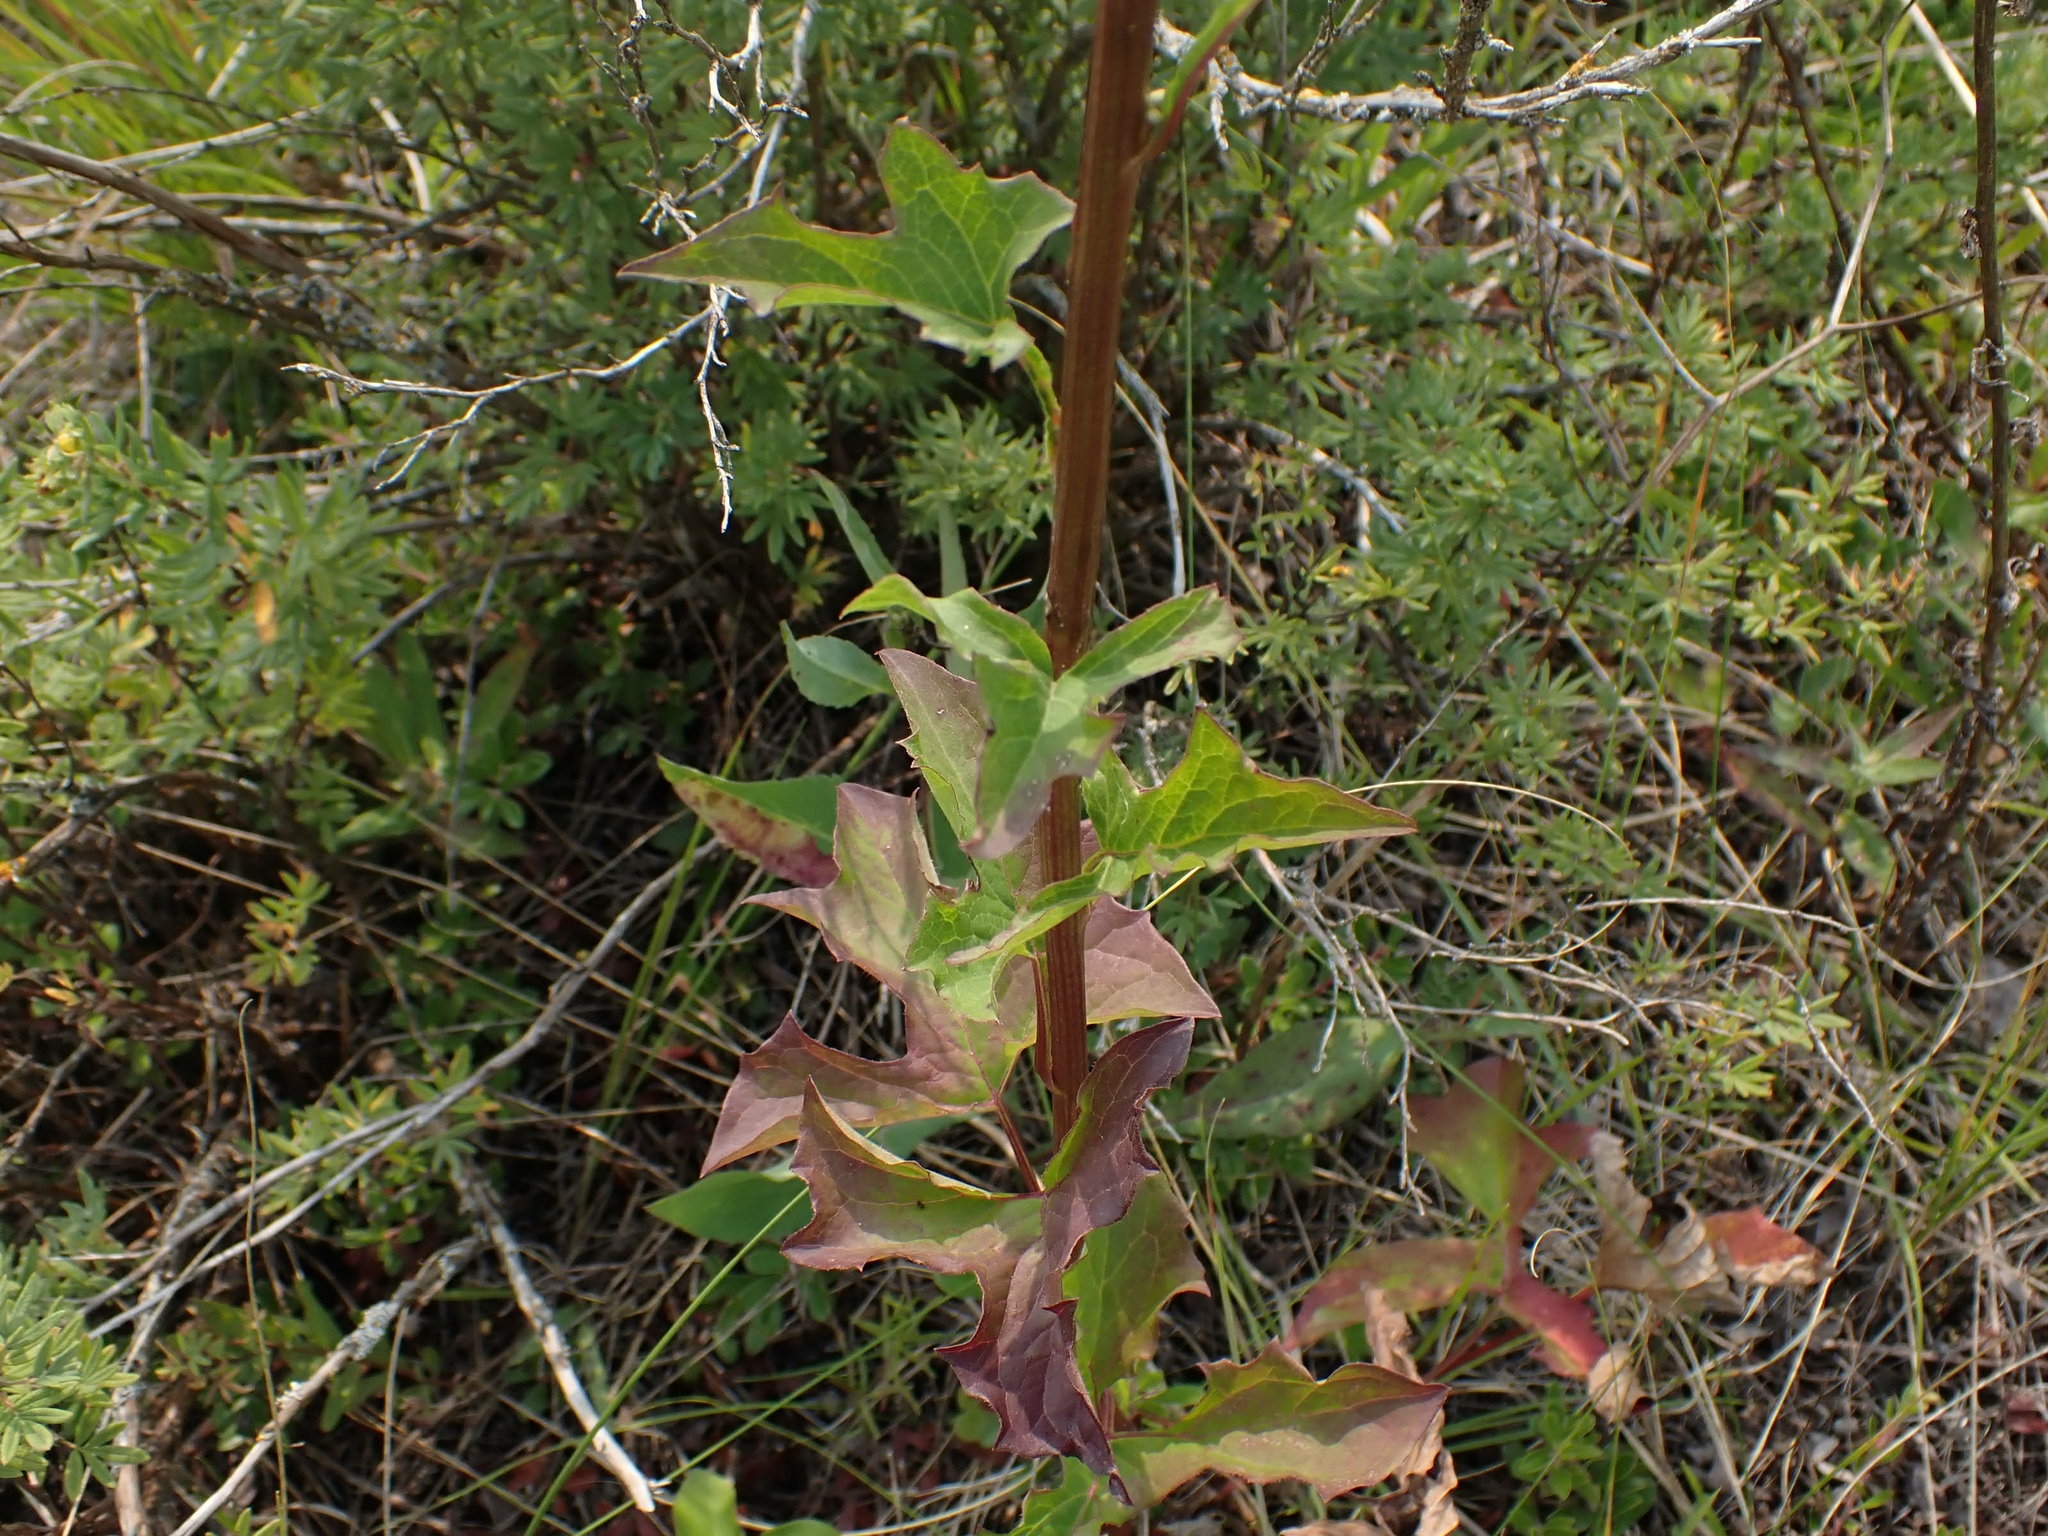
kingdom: Plantae
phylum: Tracheophyta
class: Magnoliopsida
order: Asterales
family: Asteraceae
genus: Nabalus
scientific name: Nabalus albus
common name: White rattlesnakeroot
